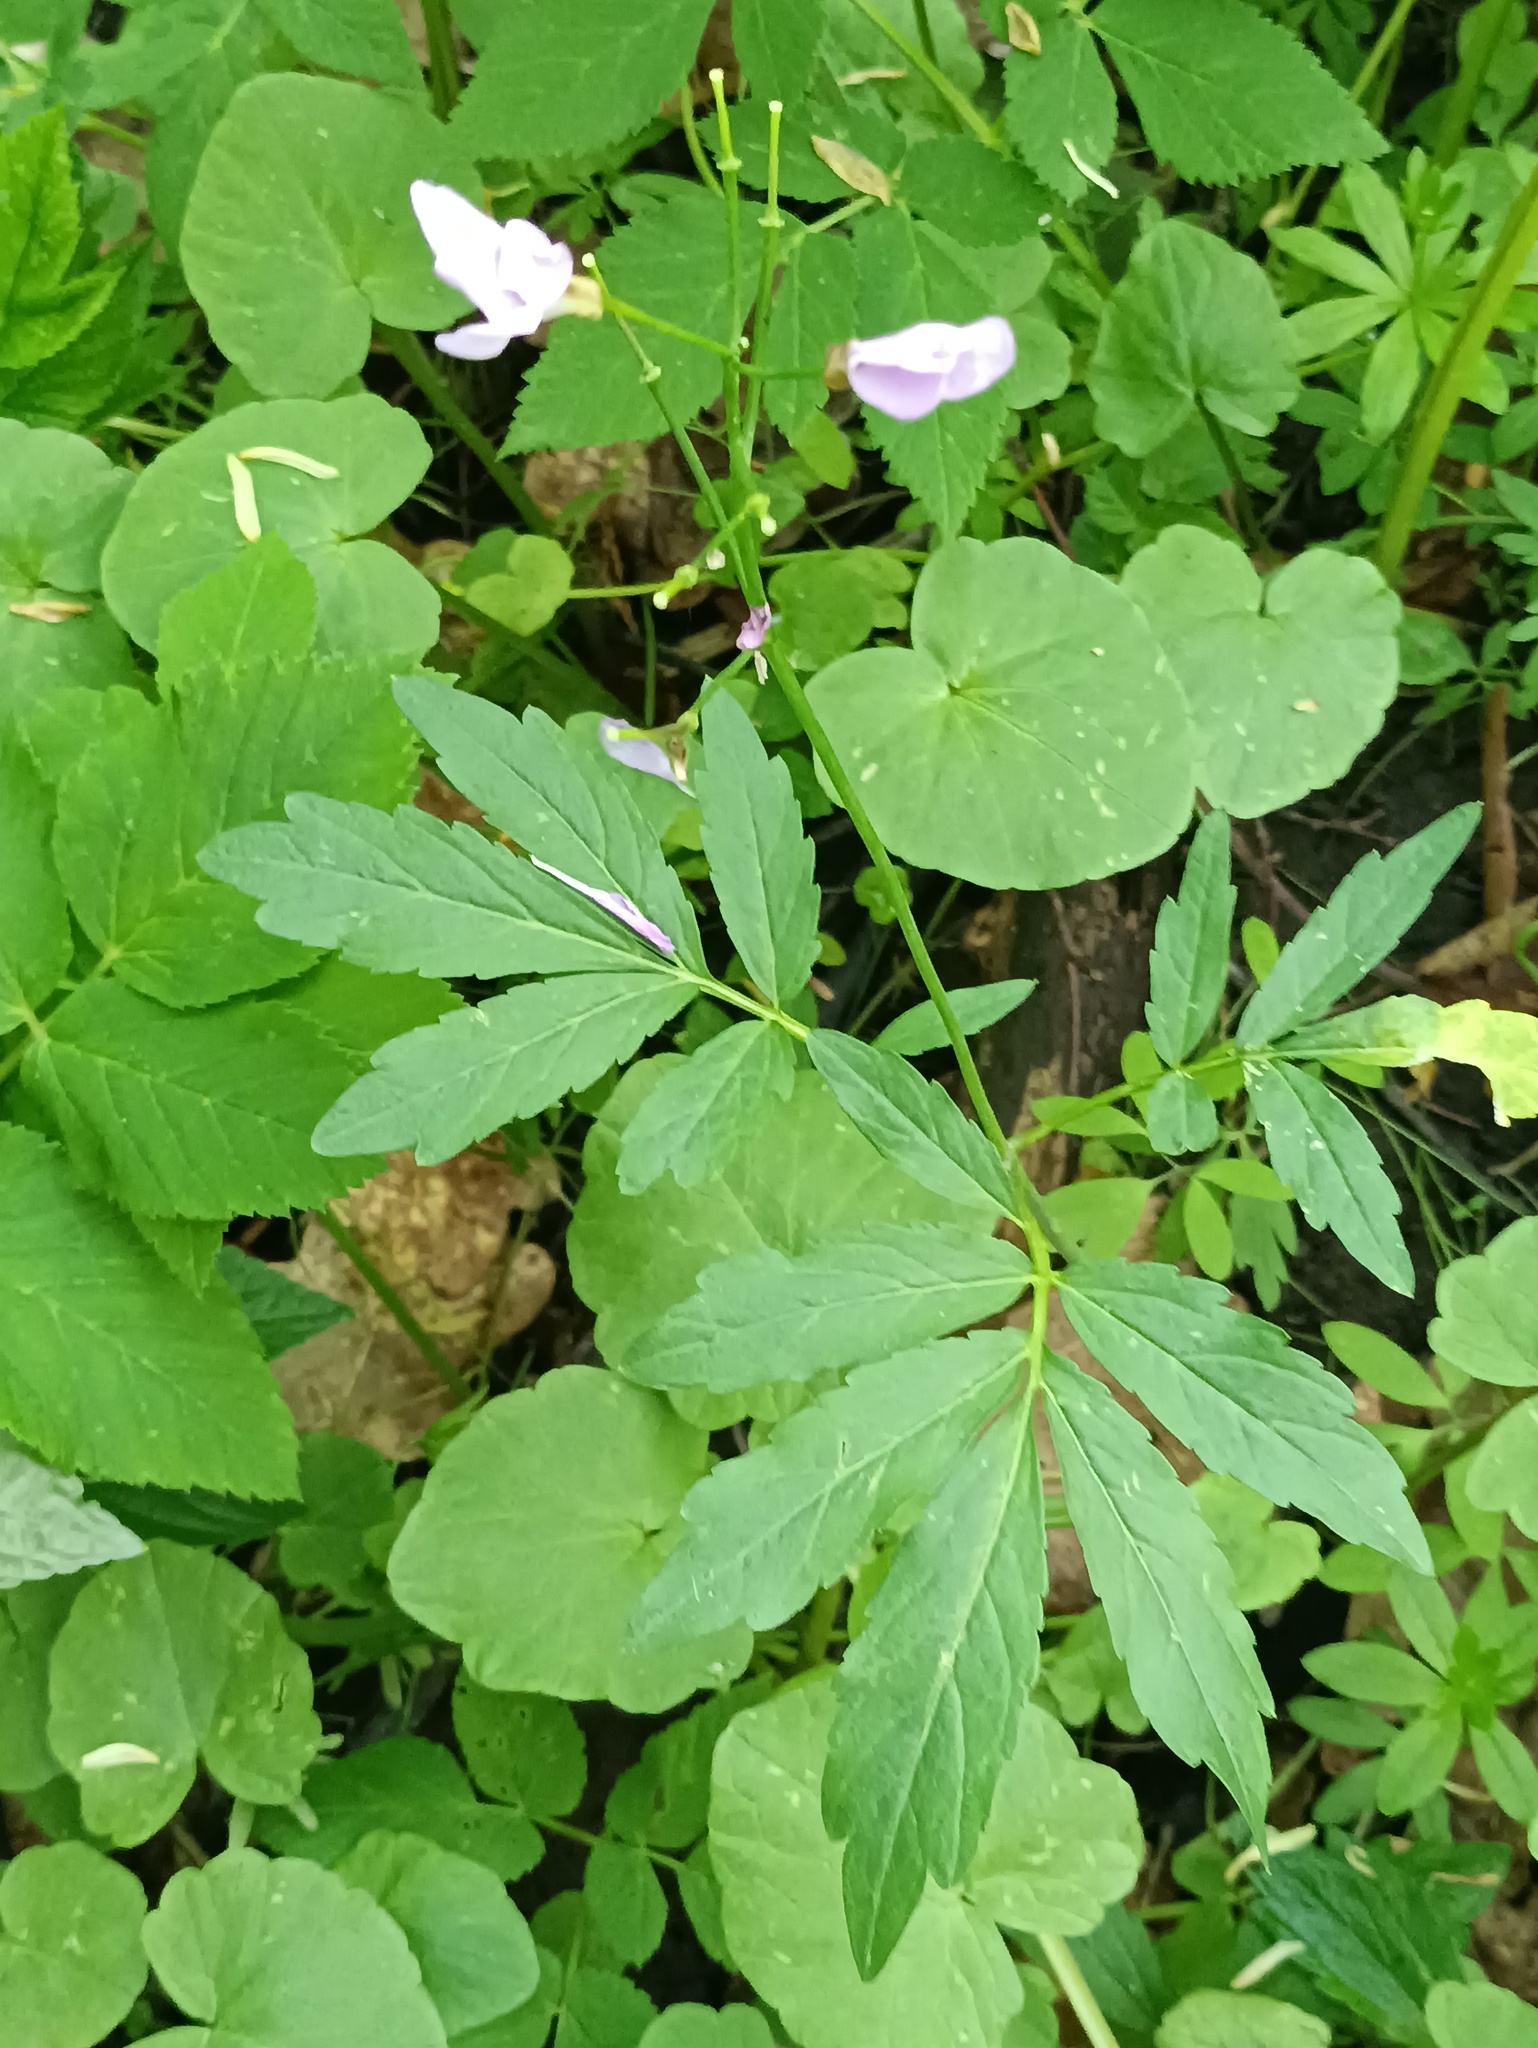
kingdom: Plantae
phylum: Tracheophyta
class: Magnoliopsida
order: Brassicales
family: Brassicaceae
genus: Cardamine
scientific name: Cardamine quinquefolia
